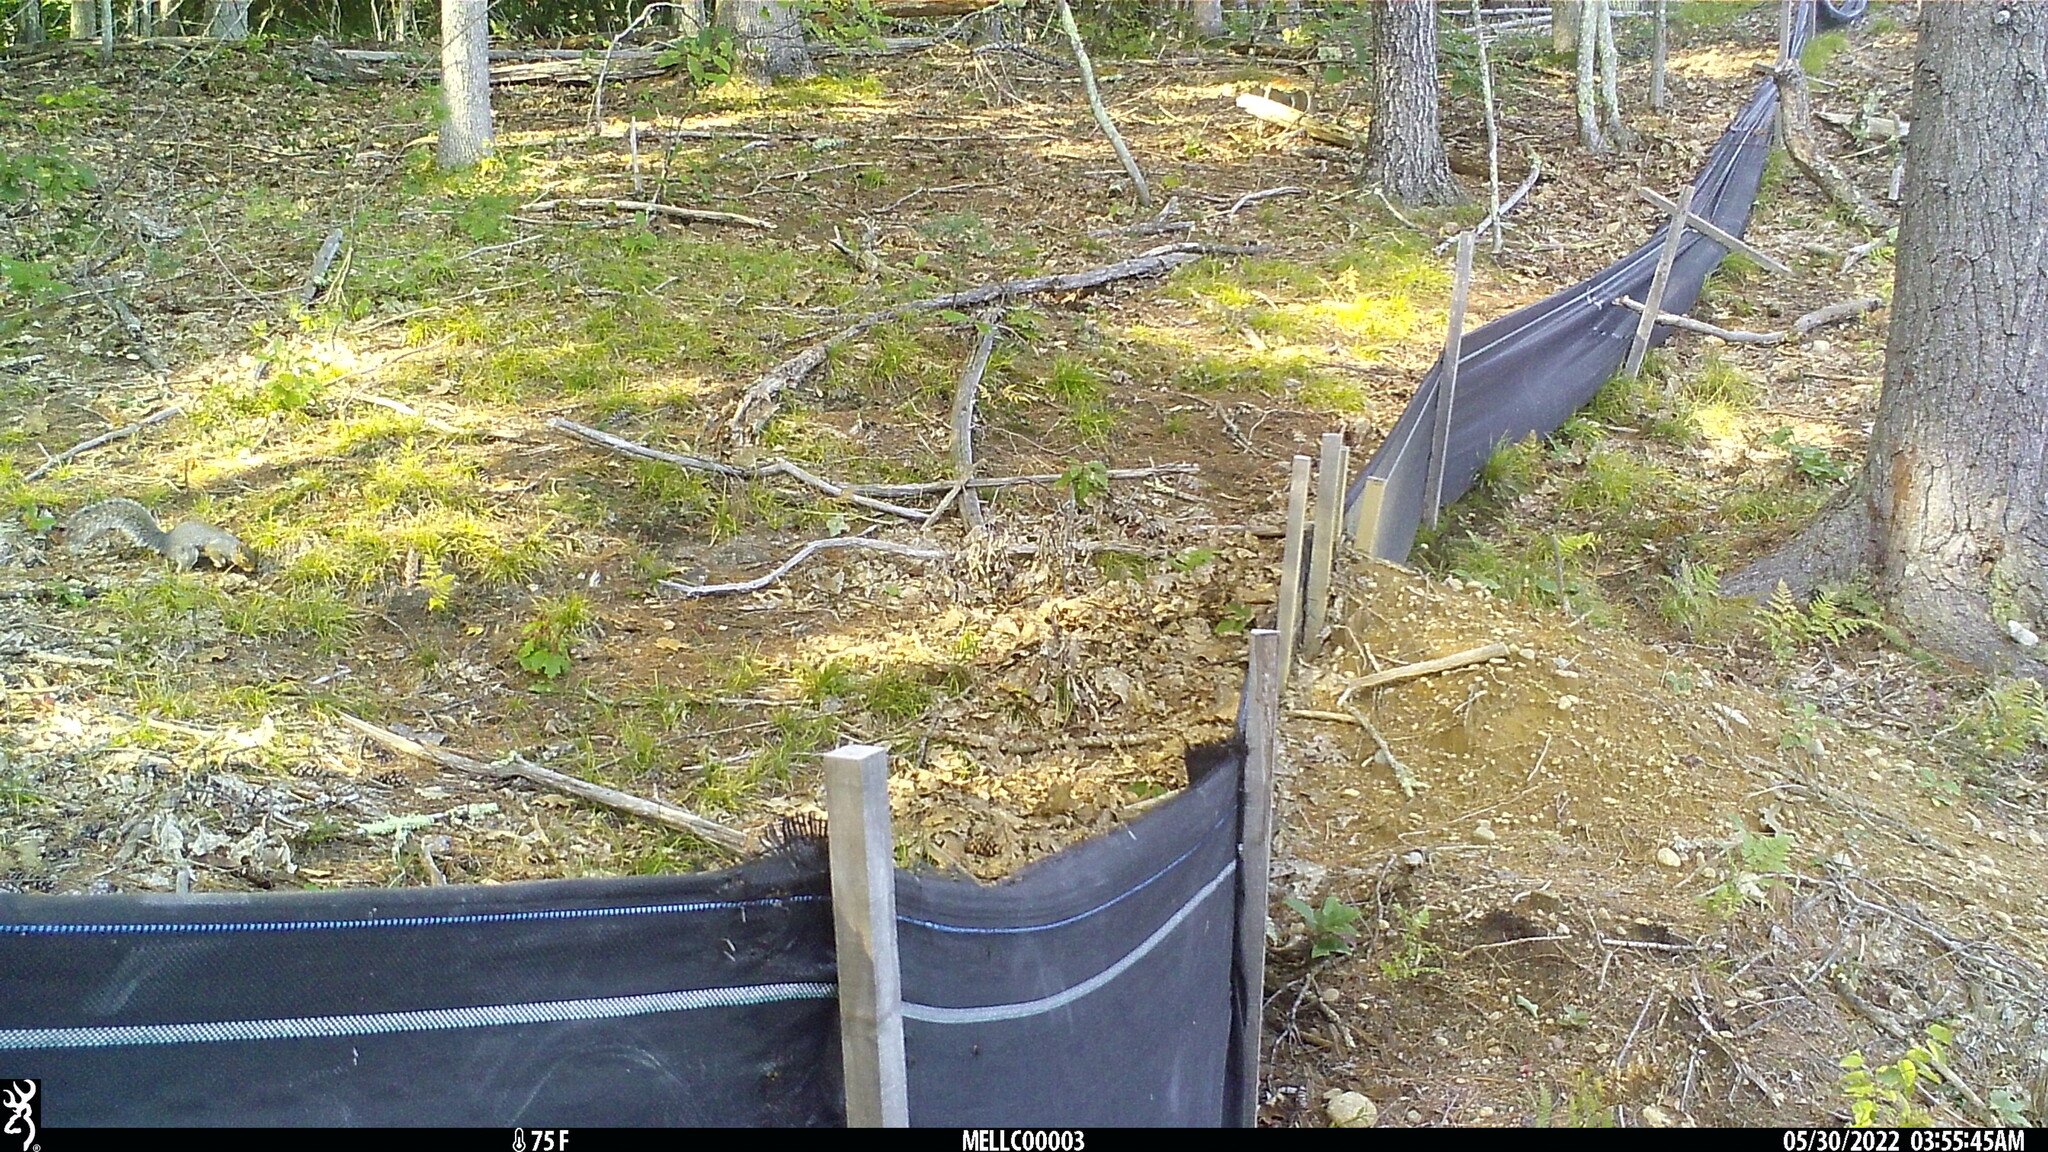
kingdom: Animalia
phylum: Chordata
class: Mammalia
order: Rodentia
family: Sciuridae
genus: Sciurus
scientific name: Sciurus carolinensis
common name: Eastern gray squirrel
